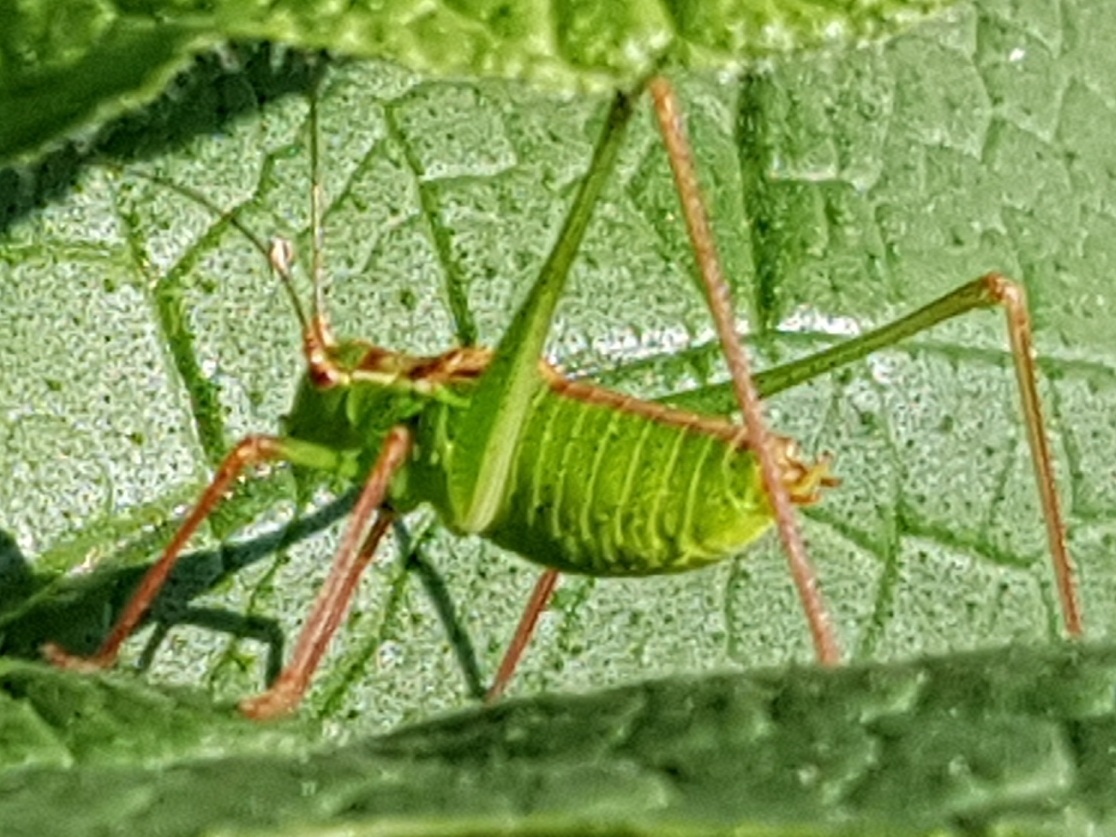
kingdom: Animalia
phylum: Arthropoda
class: Insecta
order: Orthoptera
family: Tettigoniidae
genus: Leptophyes
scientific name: Leptophyes punctatissima
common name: Speckled bush-cricket
